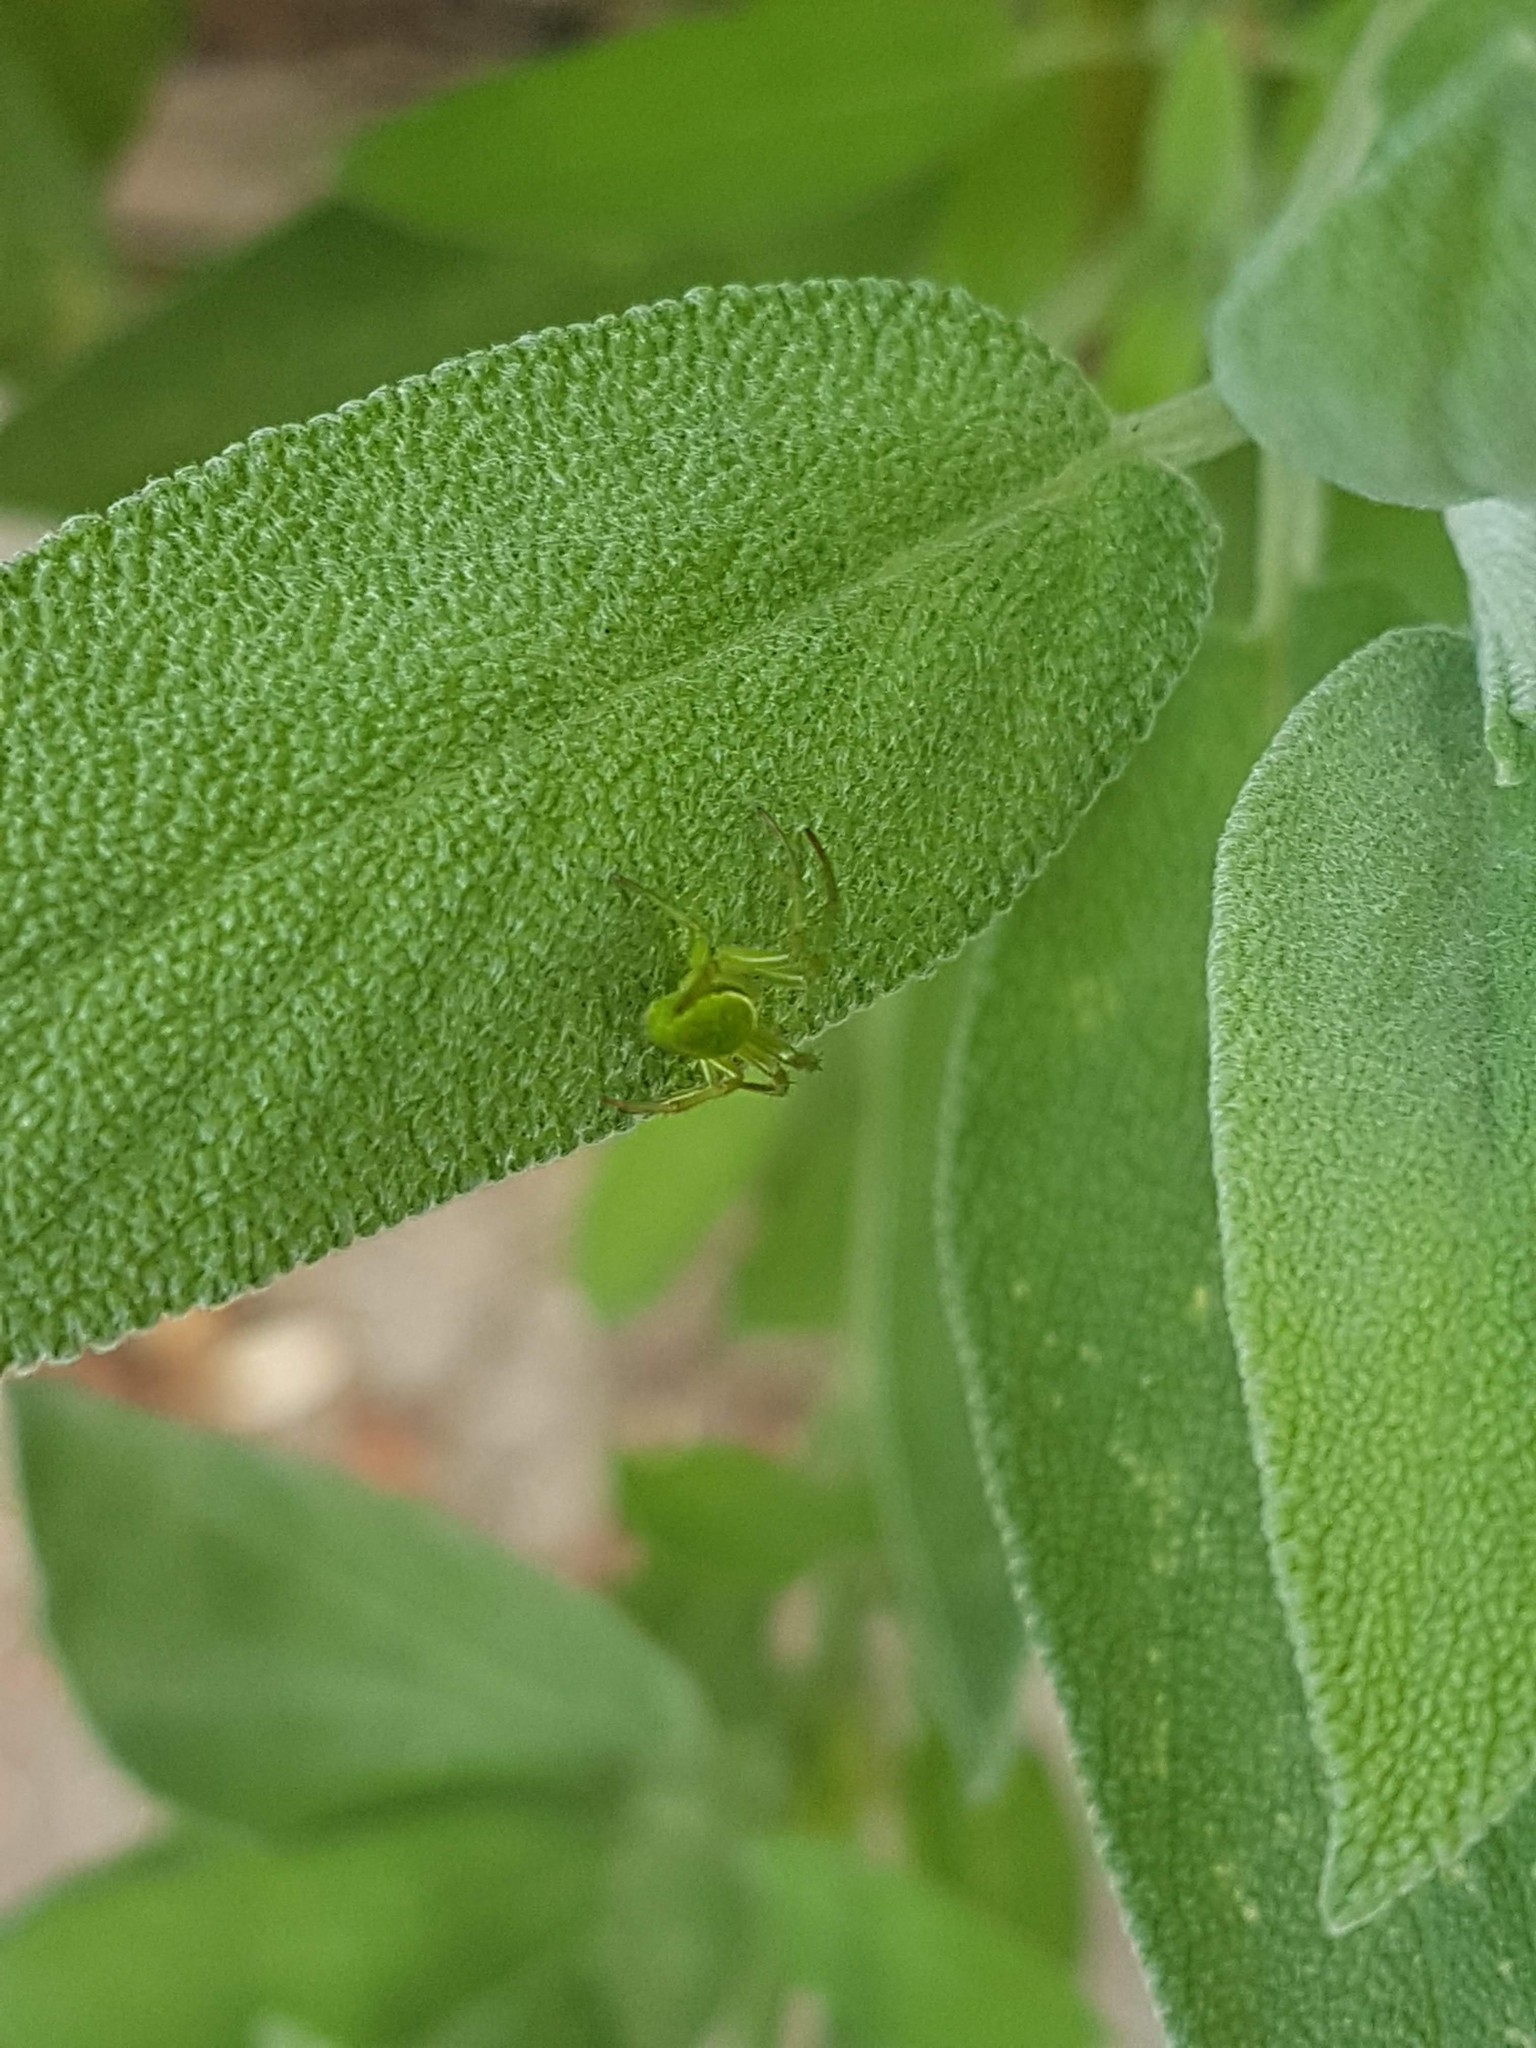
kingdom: Animalia
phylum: Arthropoda
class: Arachnida
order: Araneae
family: Araneidae
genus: Colaranea
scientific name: Colaranea viriditas
